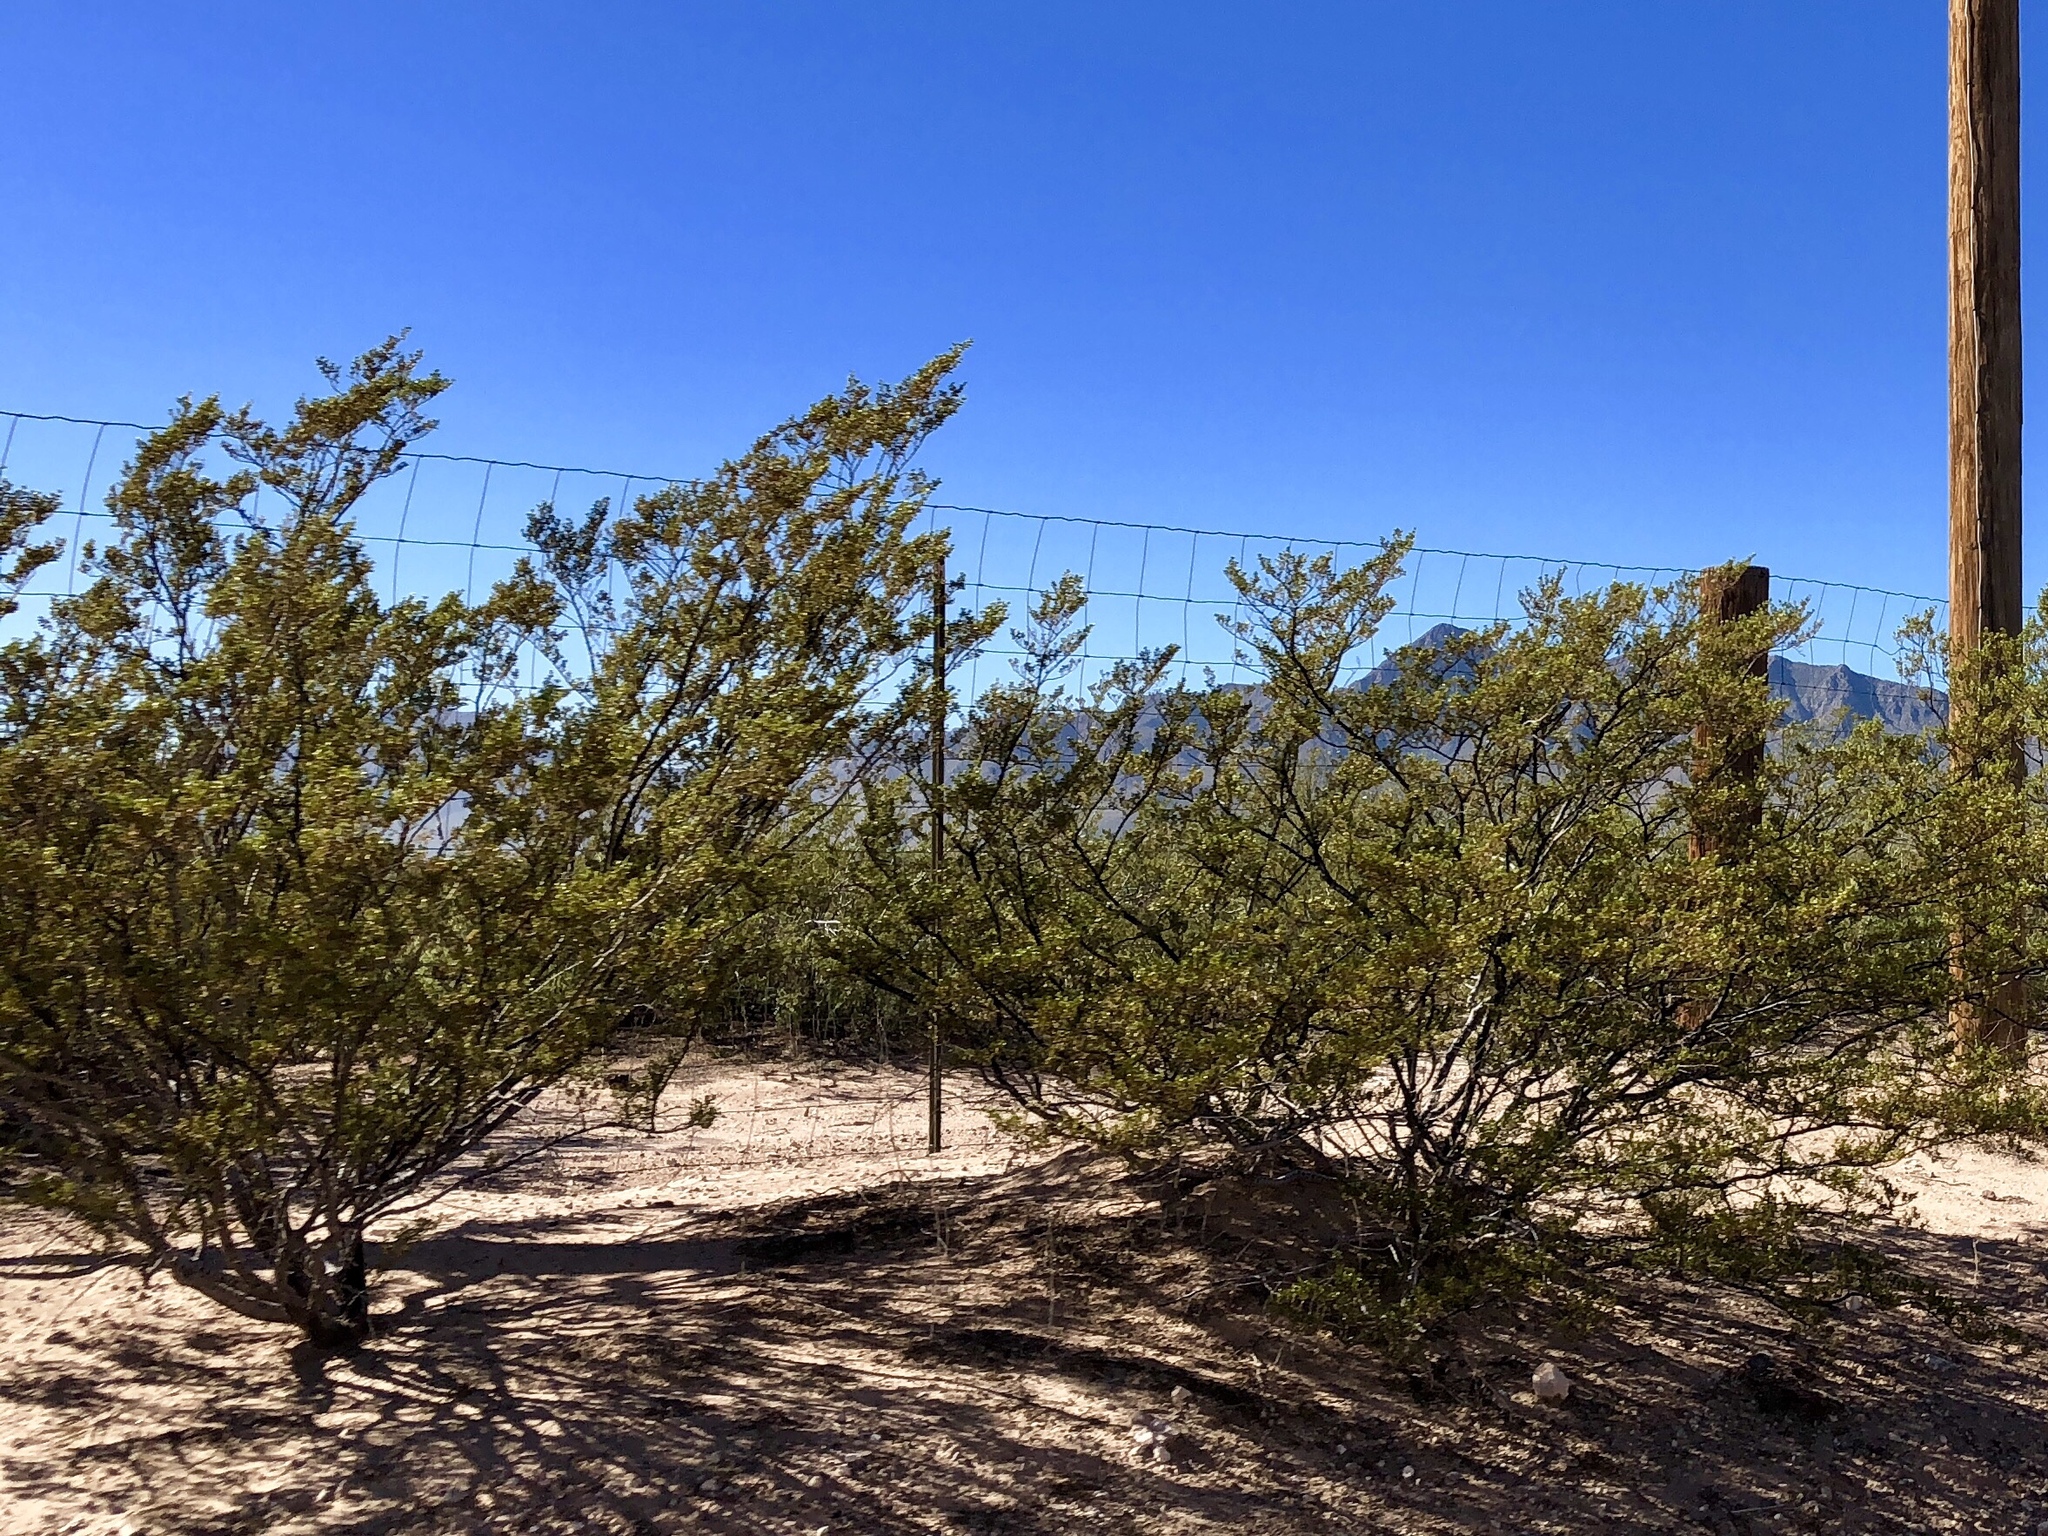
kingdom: Plantae
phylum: Tracheophyta
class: Magnoliopsida
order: Zygophyllales
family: Zygophyllaceae
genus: Larrea
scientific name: Larrea tridentata
